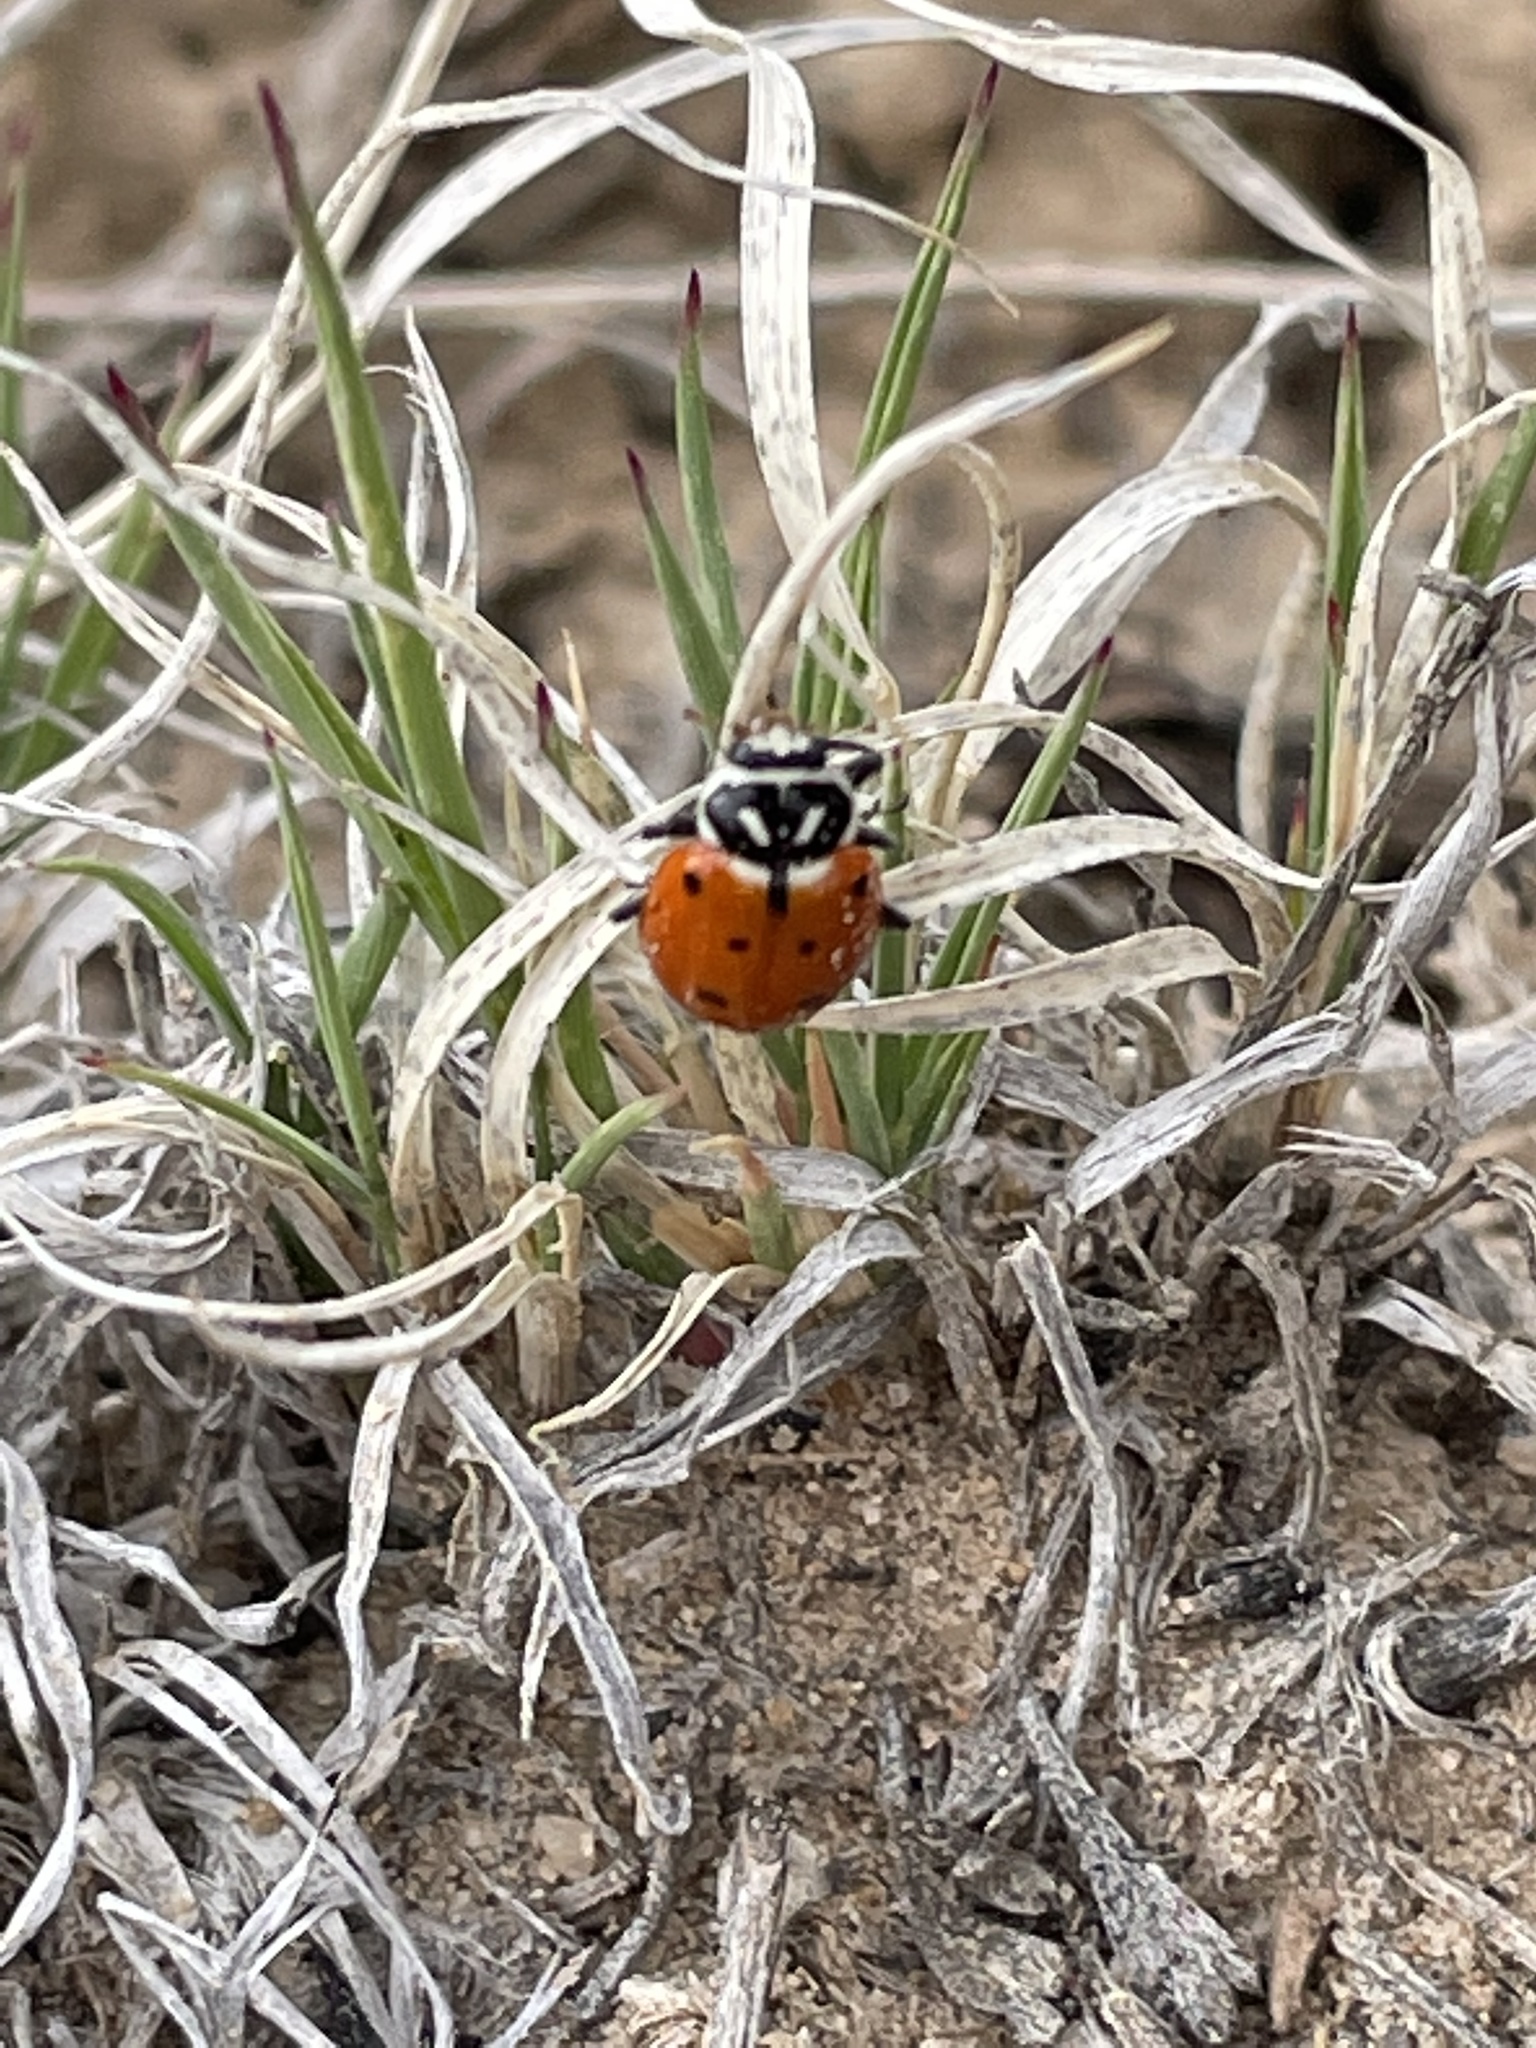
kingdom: Animalia
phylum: Arthropoda
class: Insecta
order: Coleoptera
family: Coccinellidae
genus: Hippodamia
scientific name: Hippodamia convergens
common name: Convergent lady beetle
